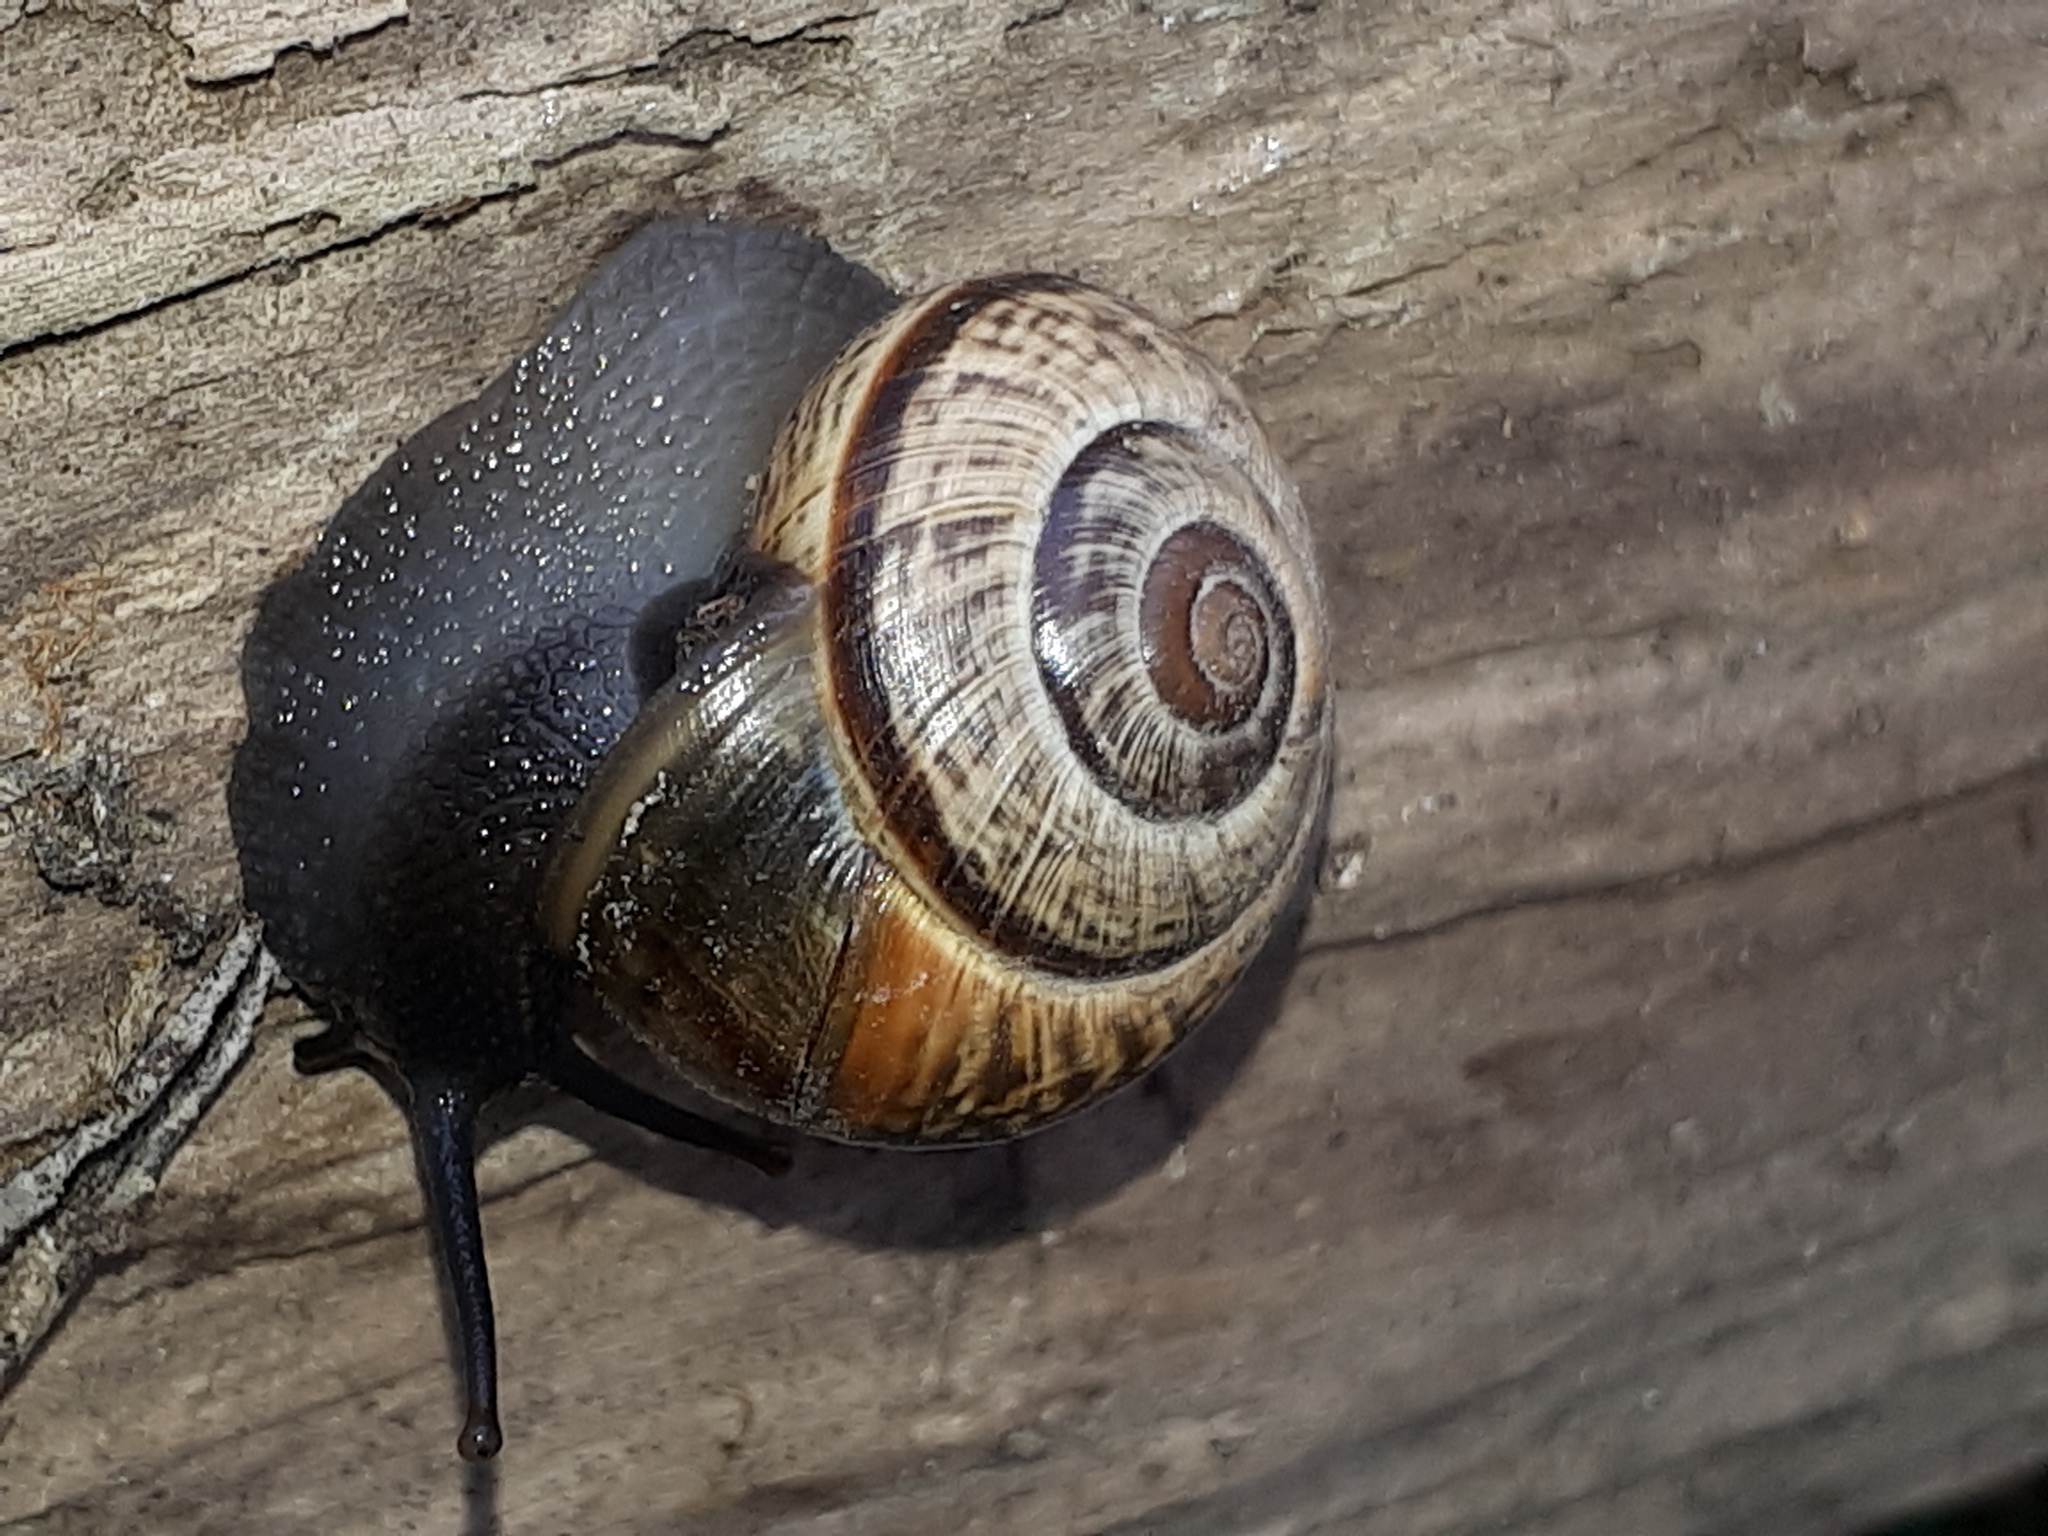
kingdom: Animalia
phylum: Mollusca
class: Gastropoda
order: Stylommatophora
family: Helicidae
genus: Arianta
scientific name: Arianta arbustorum
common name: Copse snail
